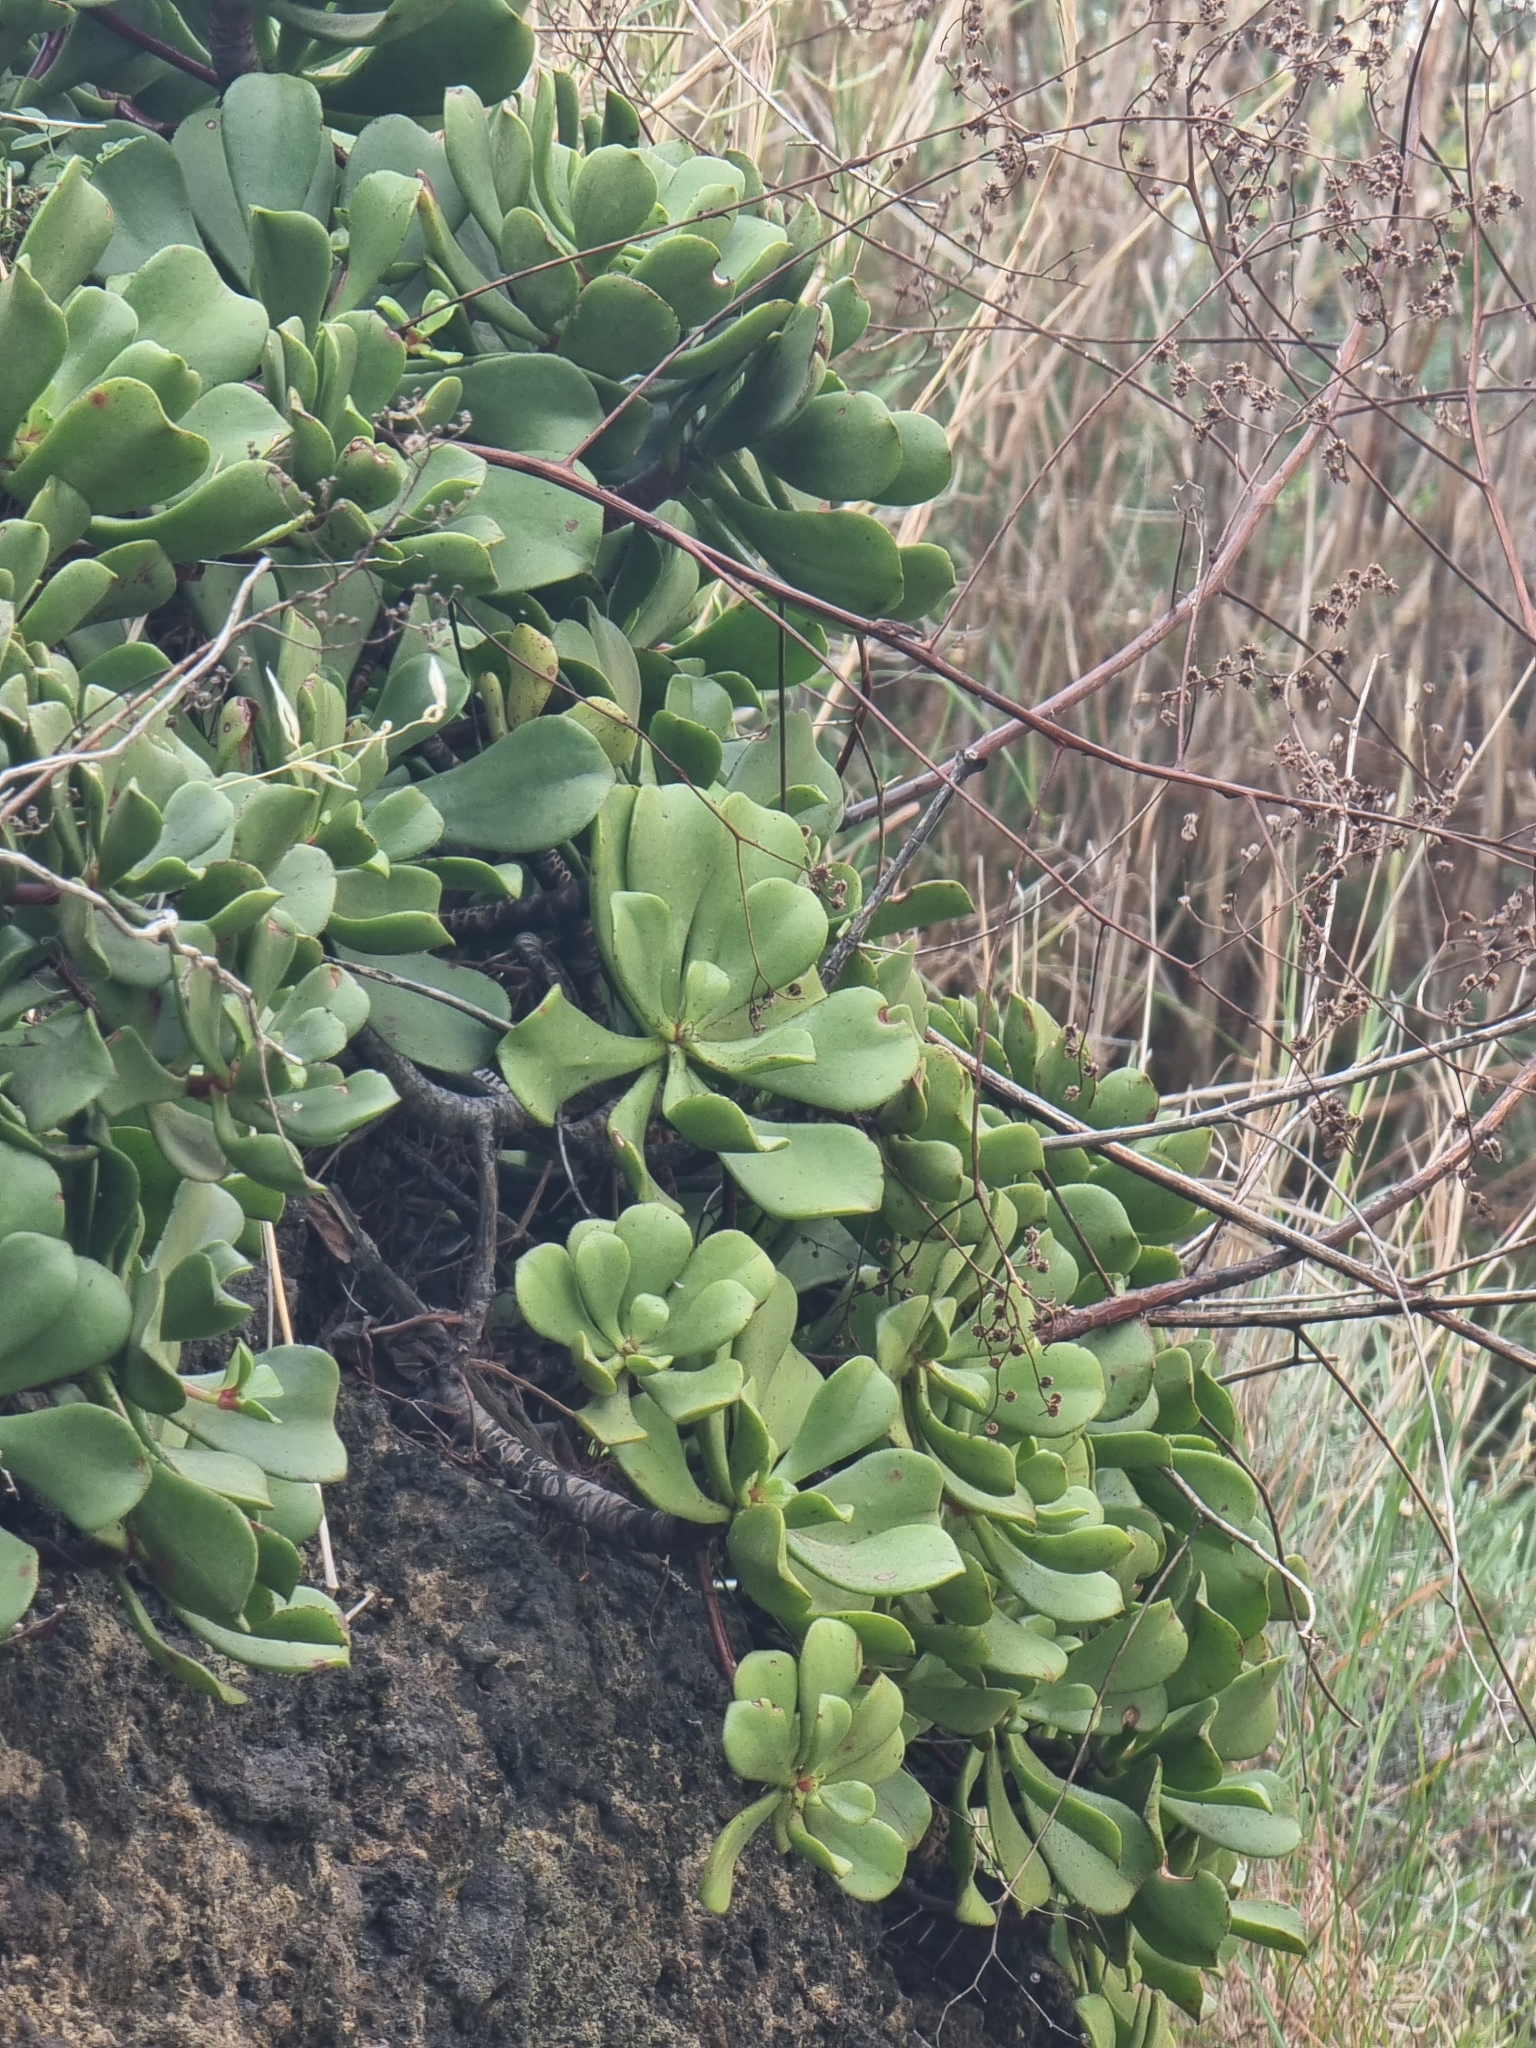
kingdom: Plantae
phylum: Tracheophyta
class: Magnoliopsida
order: Saxifragales
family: Crassulaceae
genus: Aeonium
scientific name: Aeonium glutinosum
